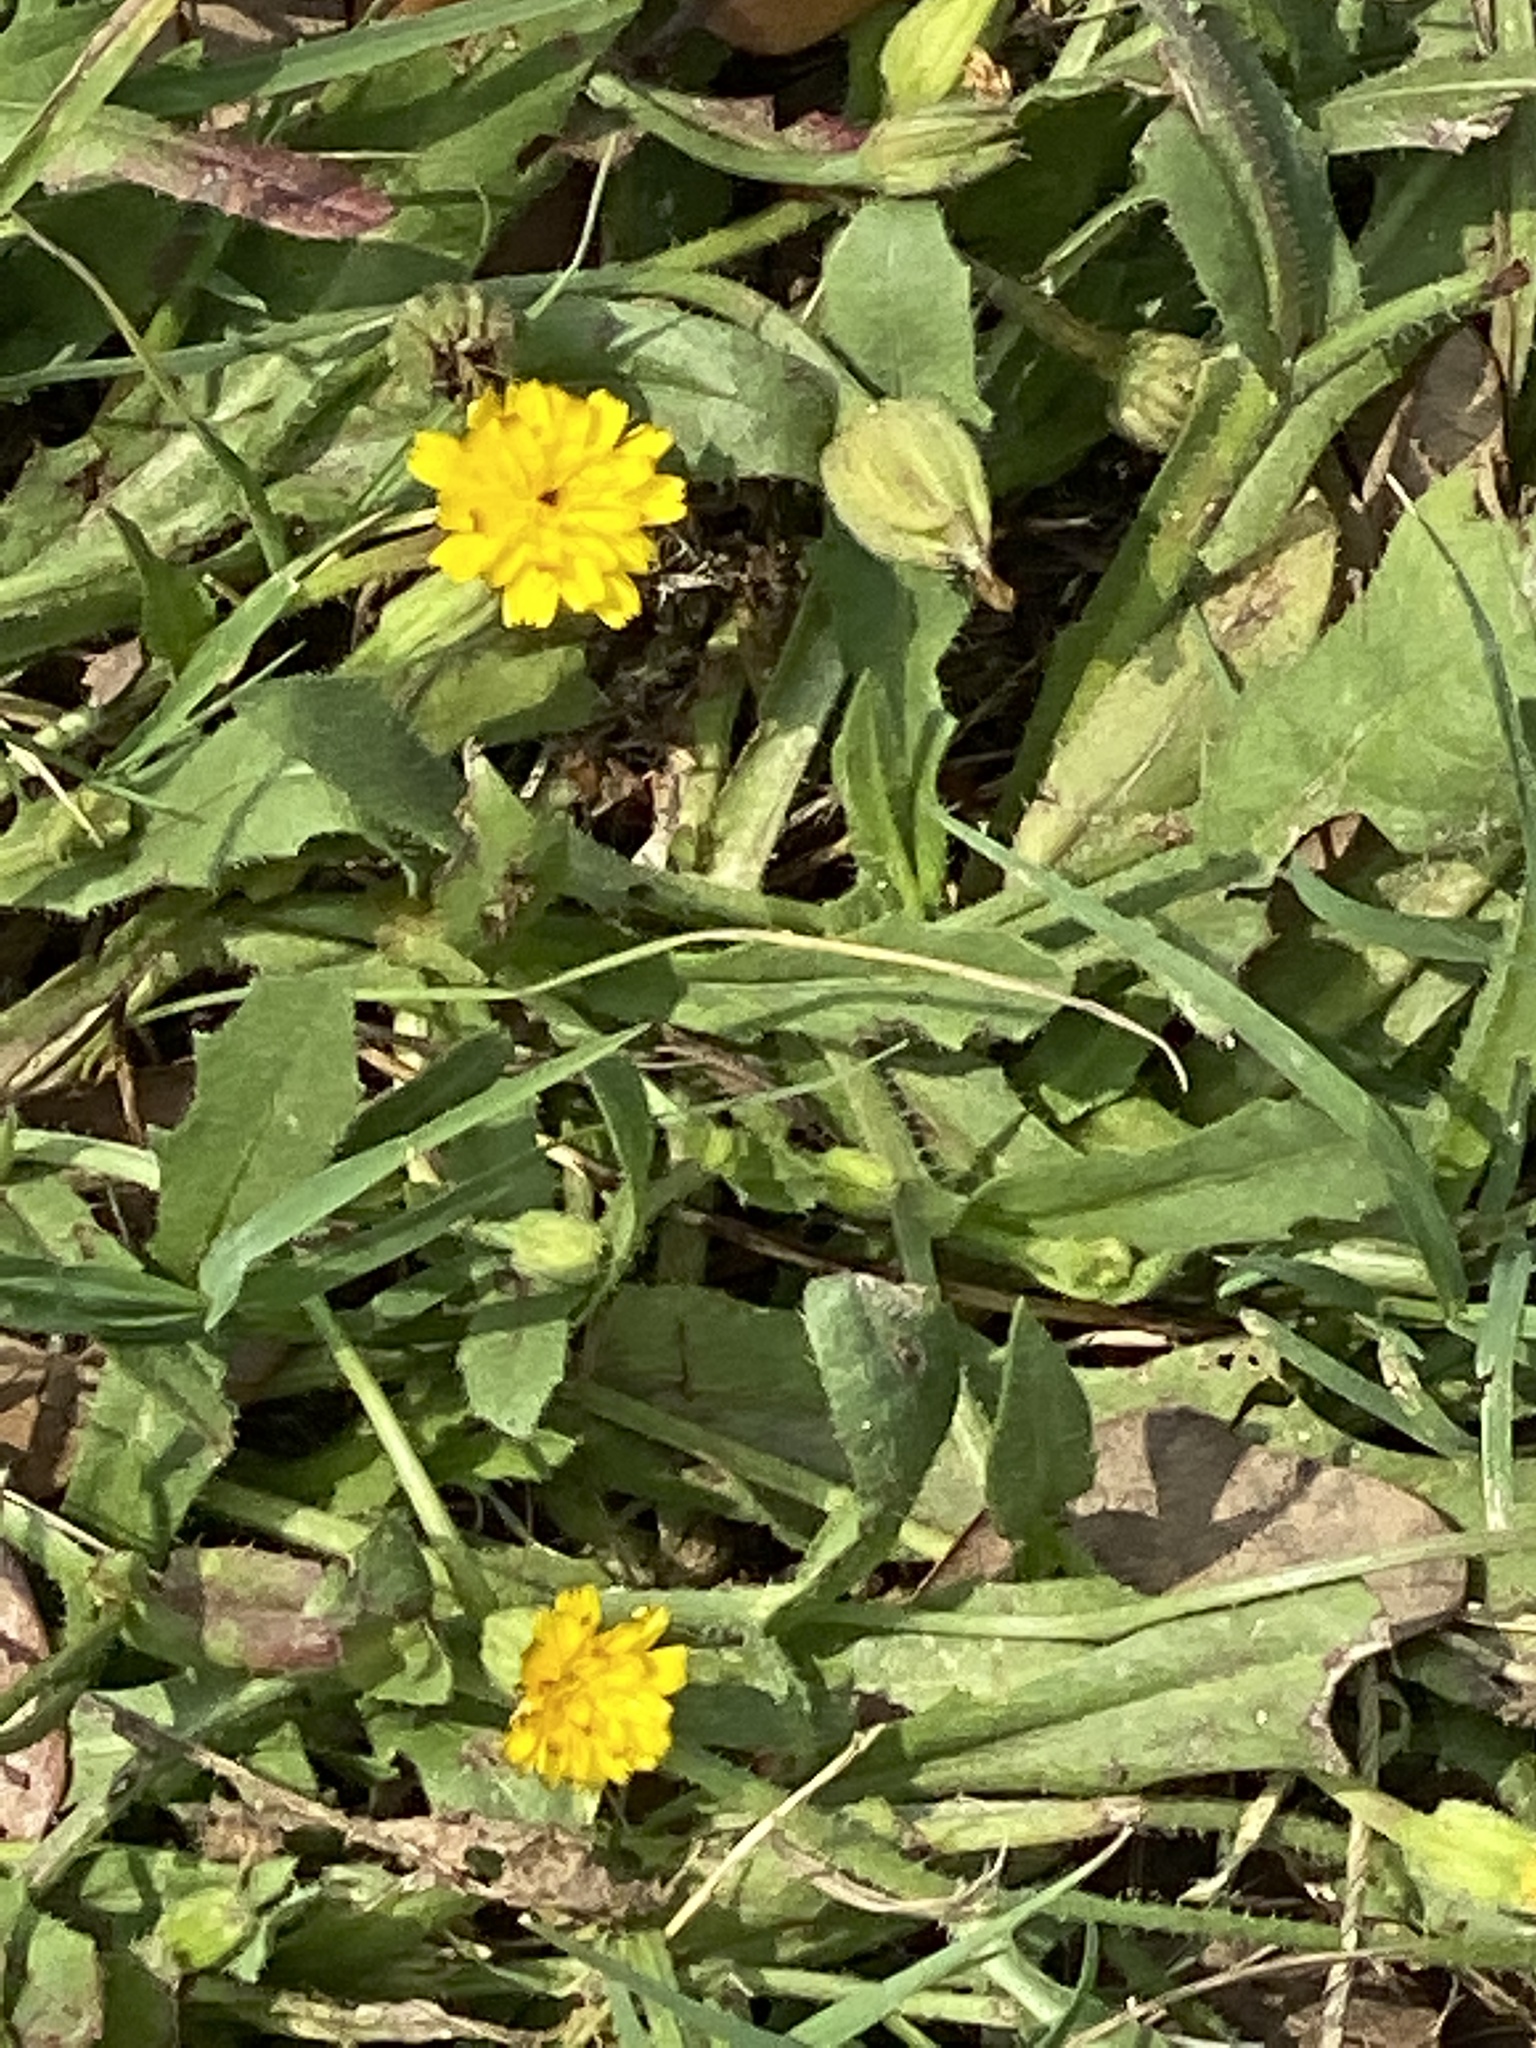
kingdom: Plantae
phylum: Tracheophyta
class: Magnoliopsida
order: Asterales
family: Asteraceae
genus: Hedypnois
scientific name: Hedypnois rhagadioloides
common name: Cretan weed
